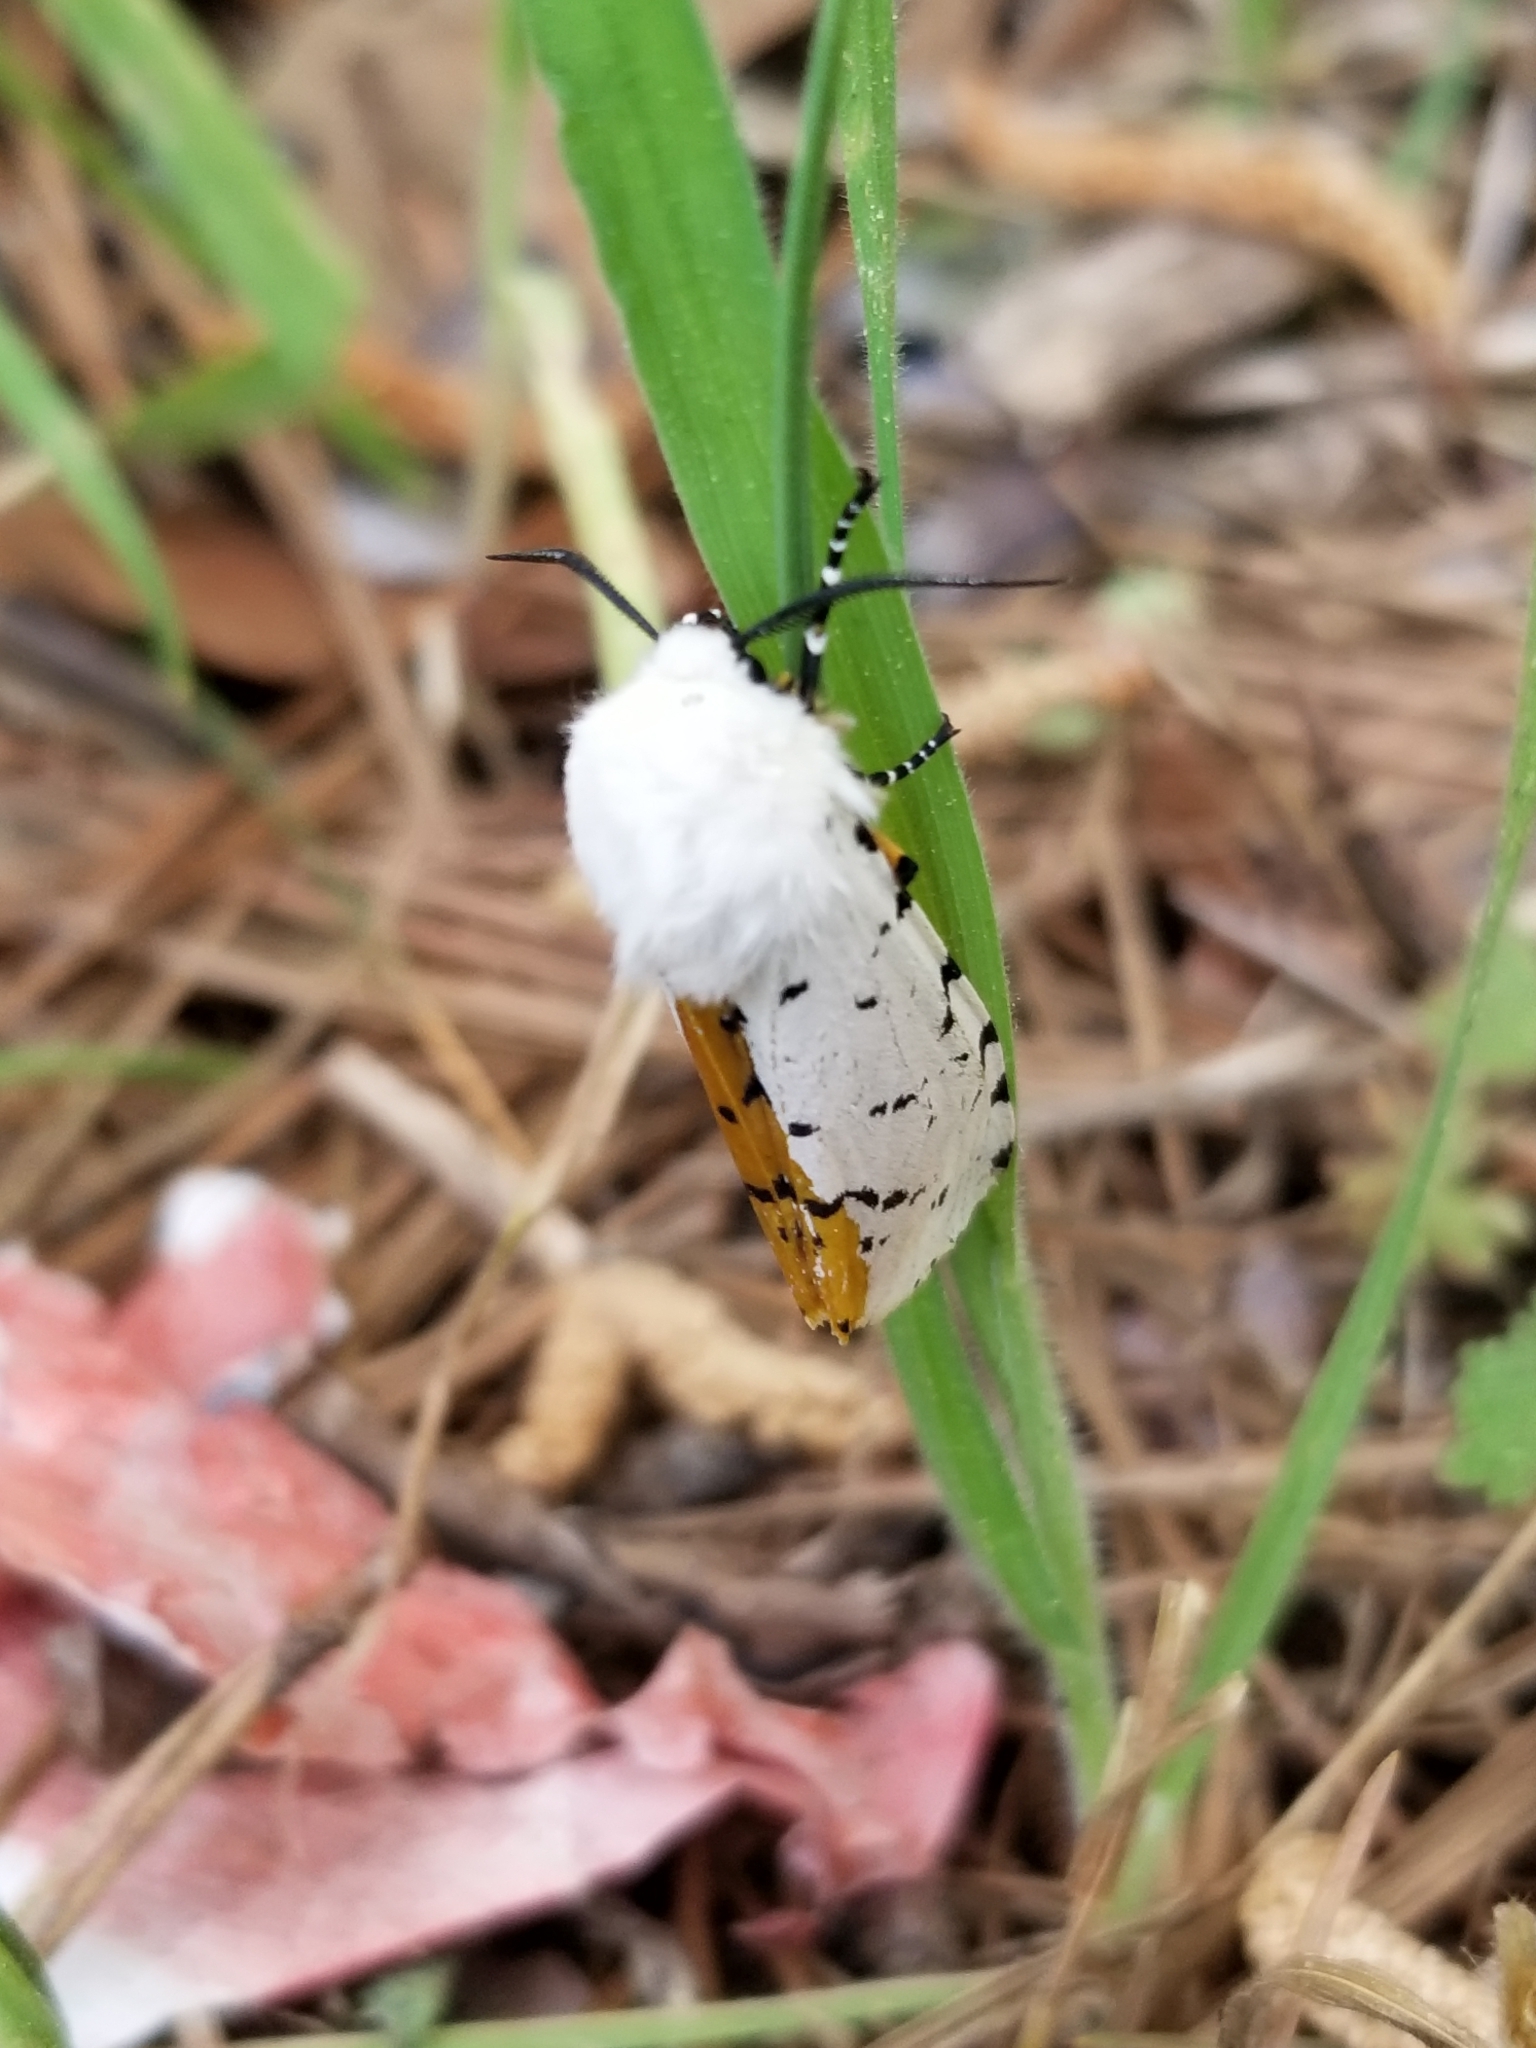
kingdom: Animalia
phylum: Arthropoda
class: Insecta
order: Lepidoptera
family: Erebidae
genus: Estigmene
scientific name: Estigmene acrea
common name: Salt marsh moth
